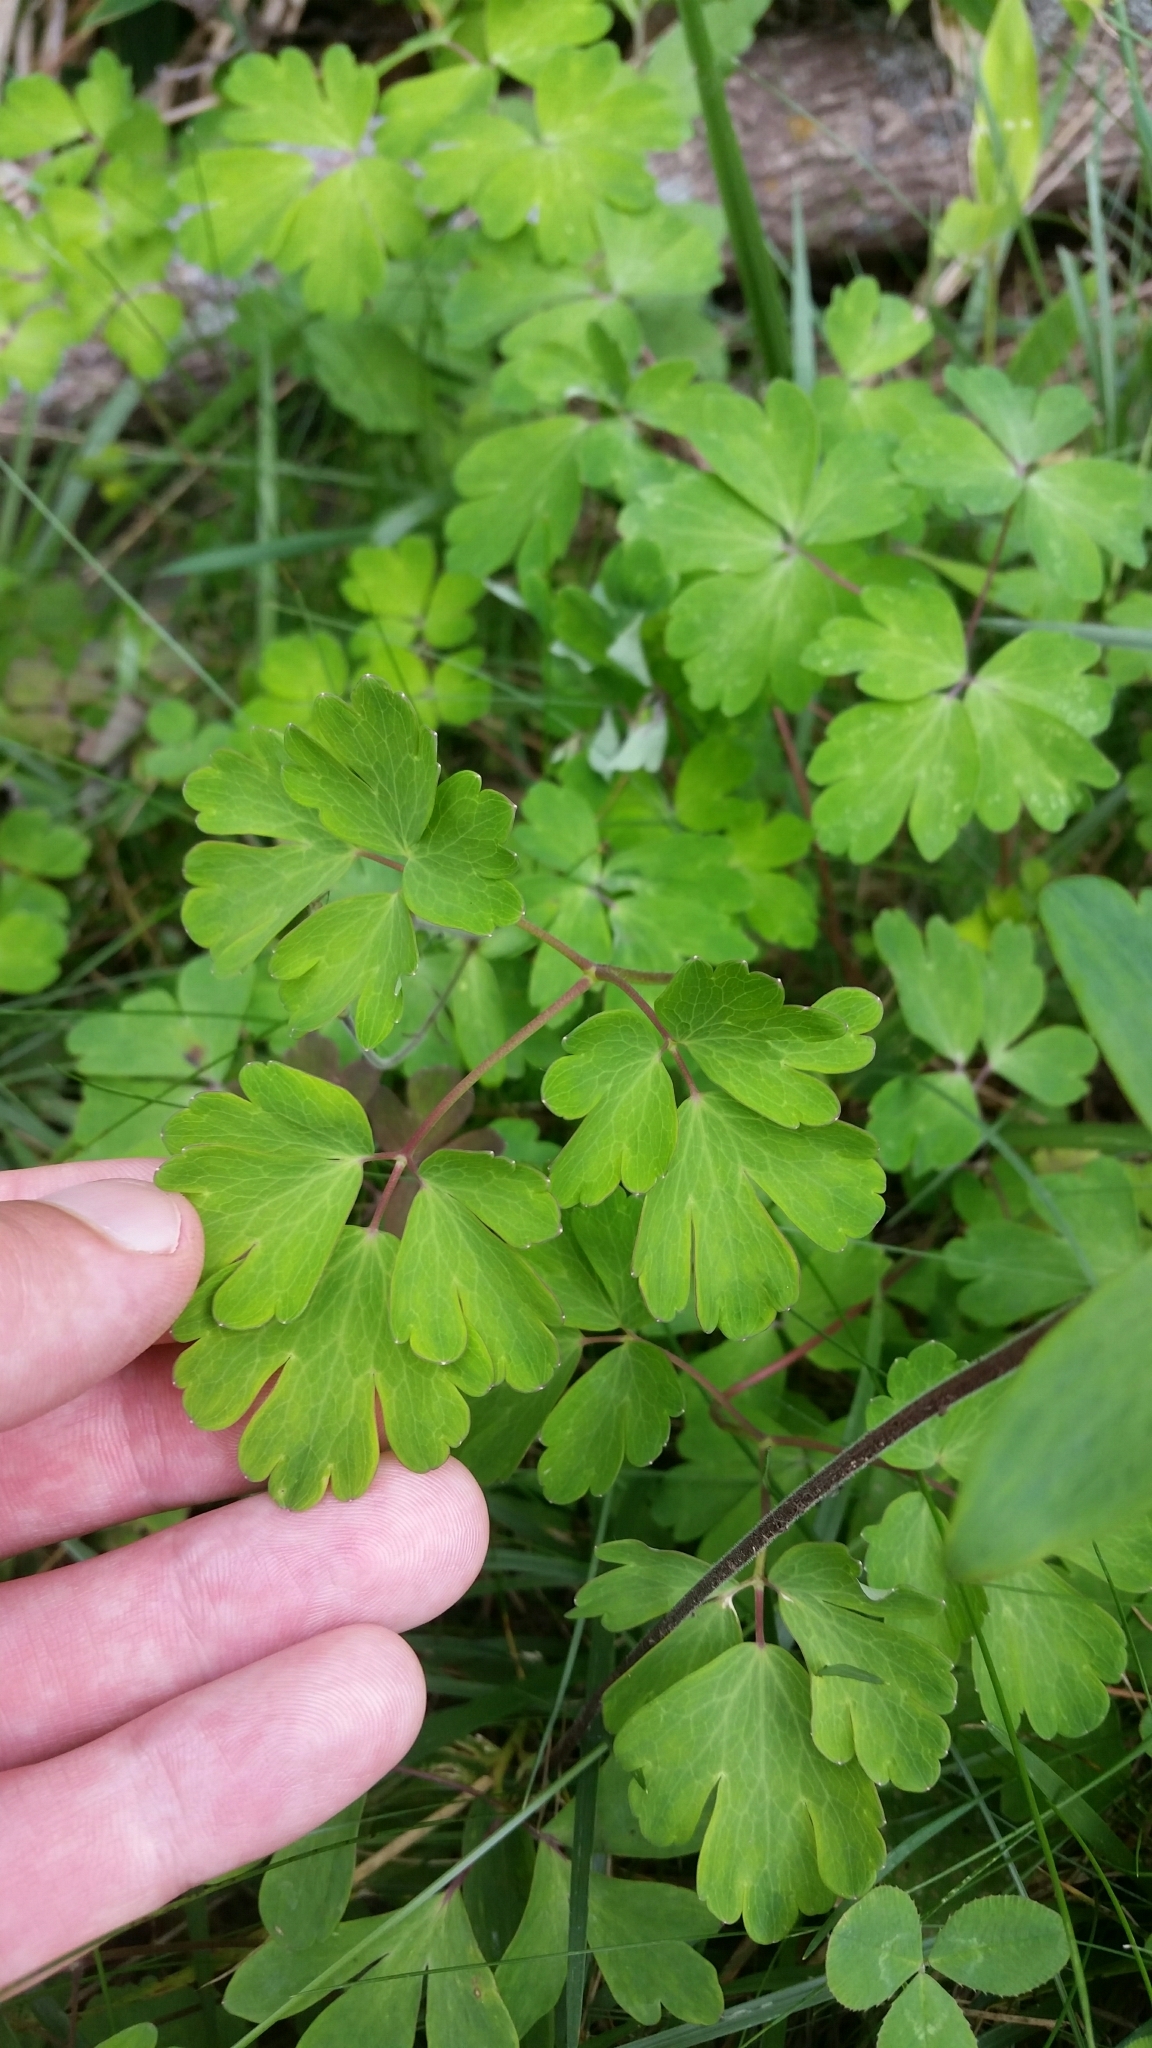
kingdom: Plantae
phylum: Tracheophyta
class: Magnoliopsida
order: Ranunculales
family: Ranunculaceae
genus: Aquilegia
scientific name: Aquilegia buergeriana
